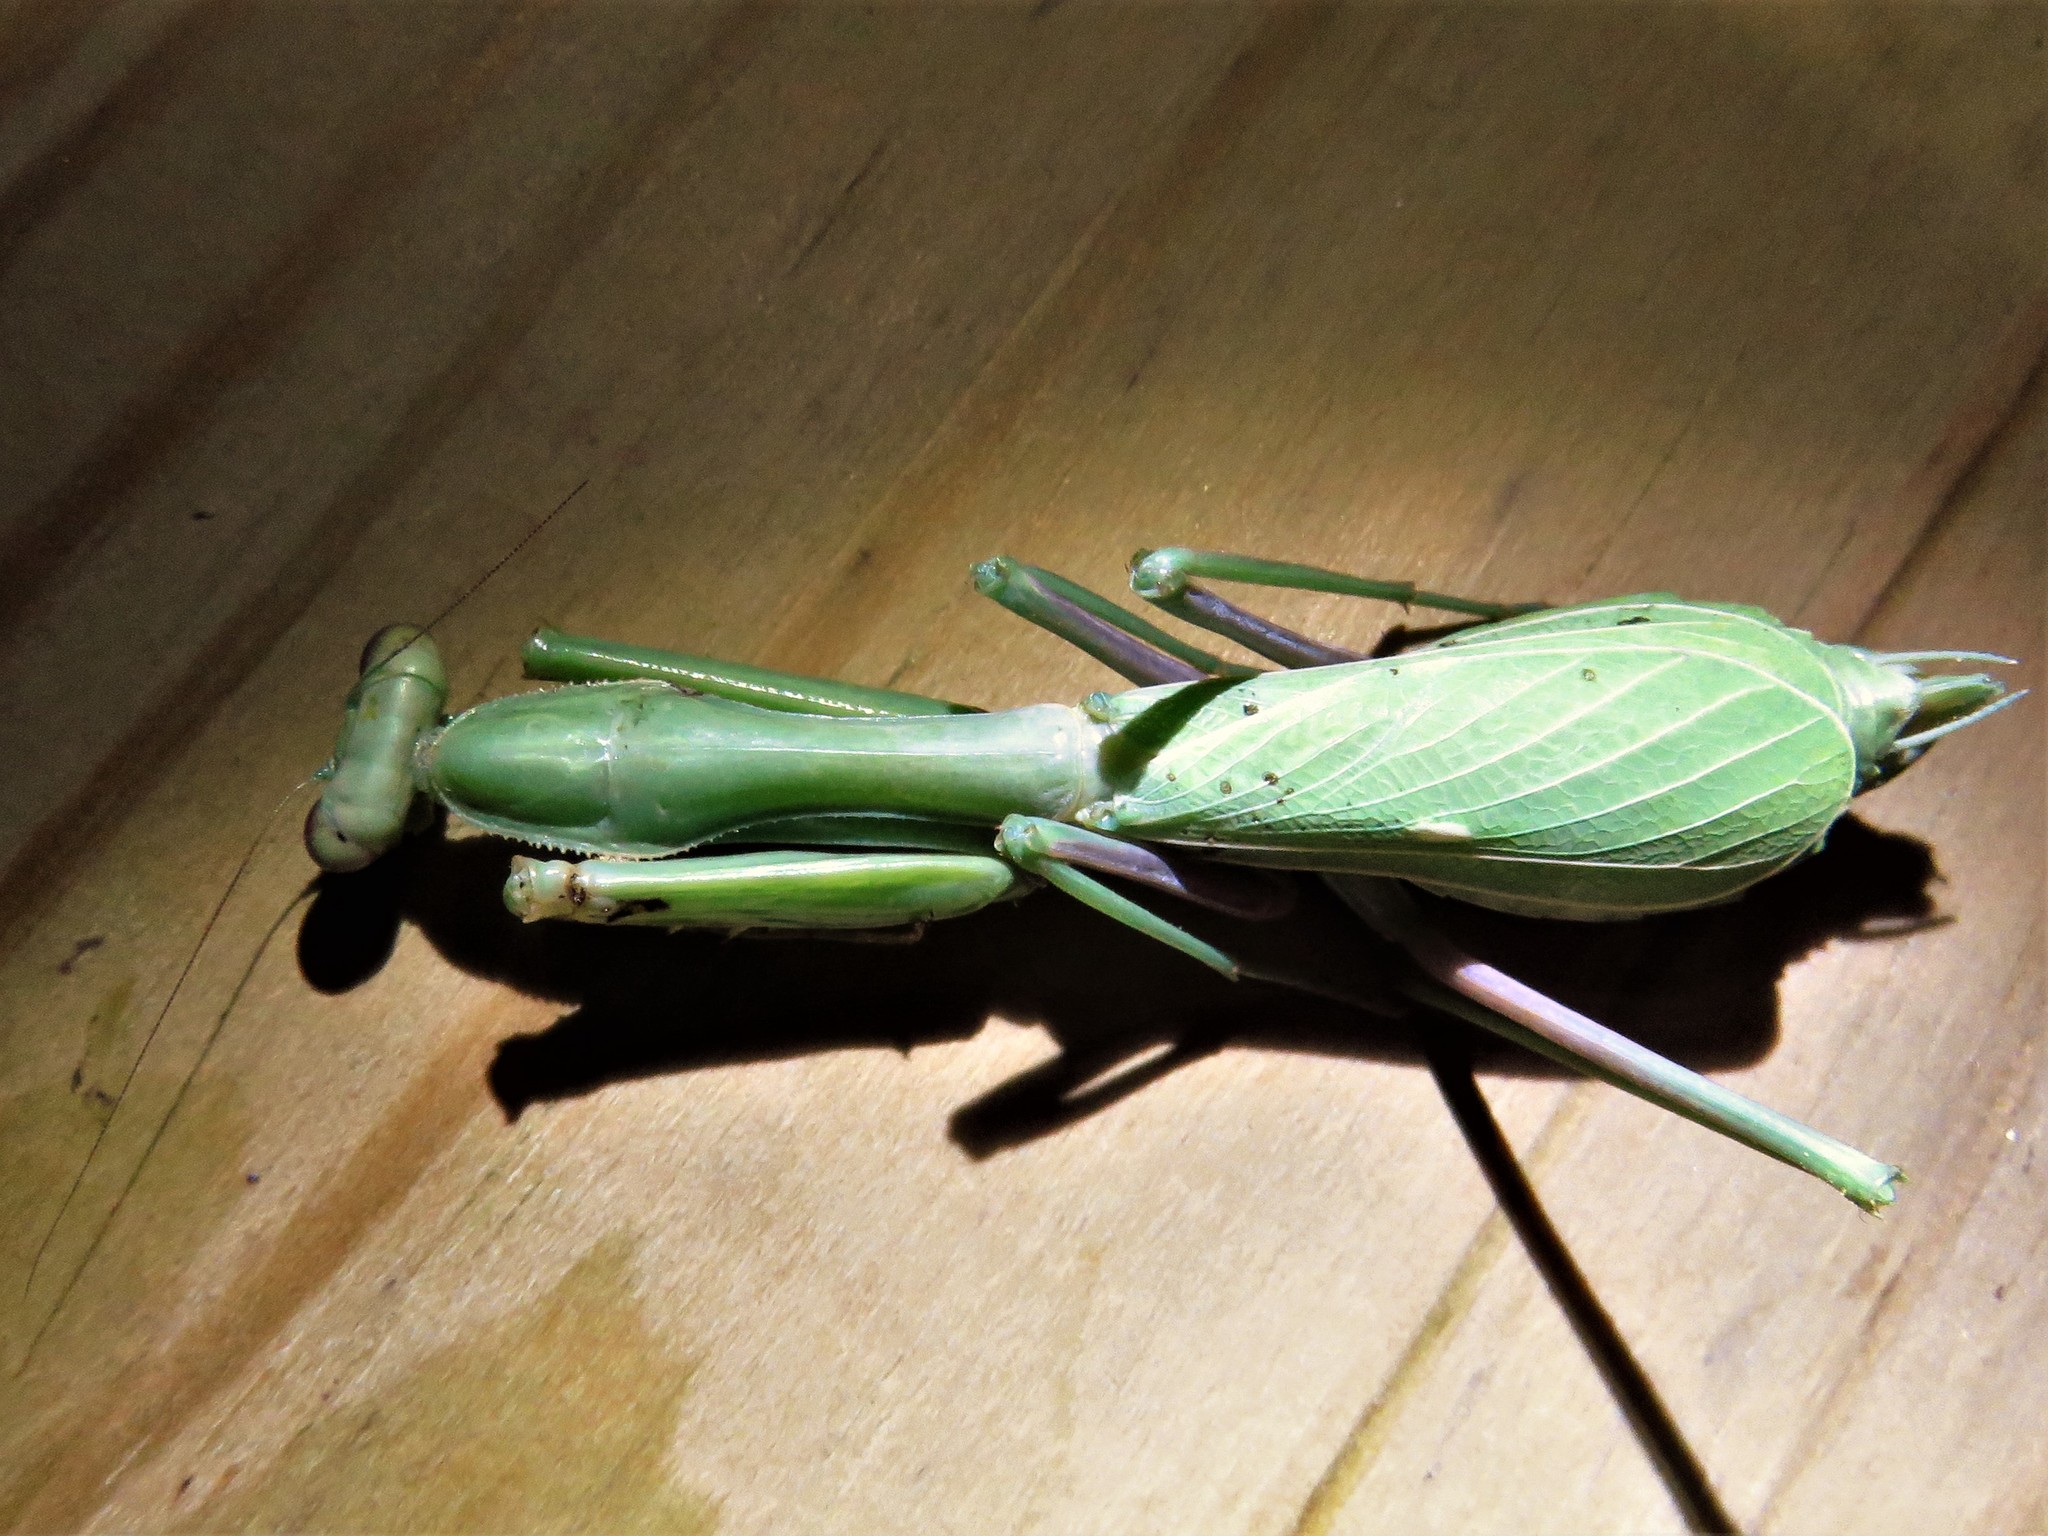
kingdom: Animalia
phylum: Arthropoda
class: Insecta
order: Mantodea
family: Mantidae
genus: Stagmomantis
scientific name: Stagmomantis limbata
